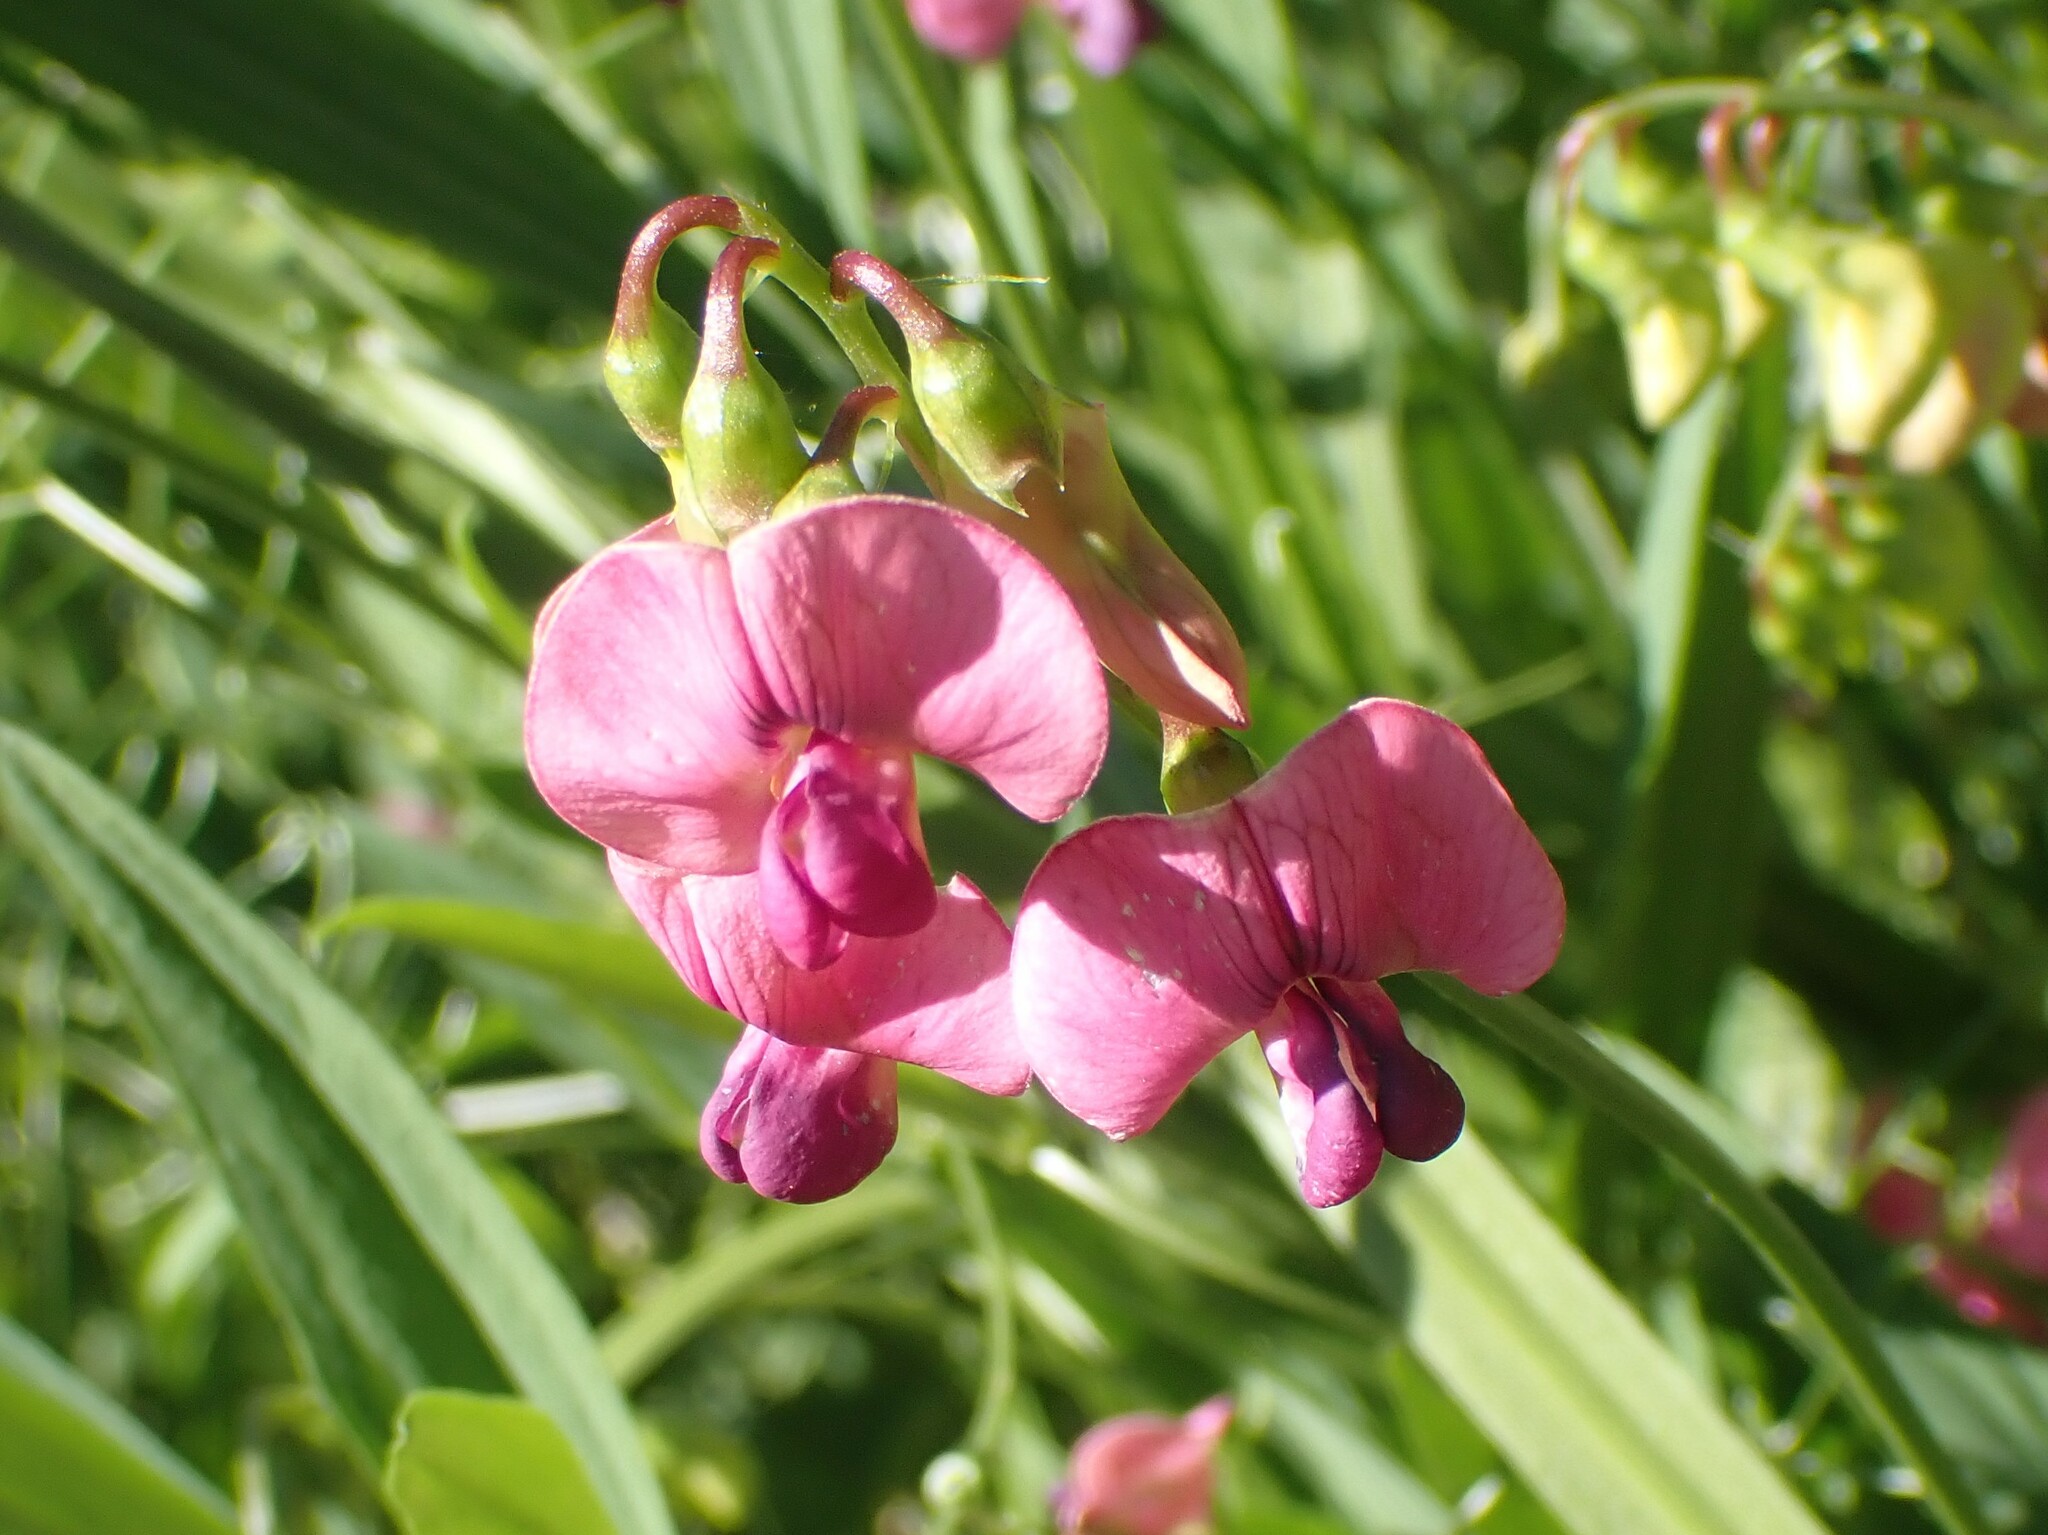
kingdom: Plantae
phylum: Tracheophyta
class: Magnoliopsida
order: Fabales
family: Fabaceae
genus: Lathyrus
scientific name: Lathyrus sylvestris
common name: Flat pea
